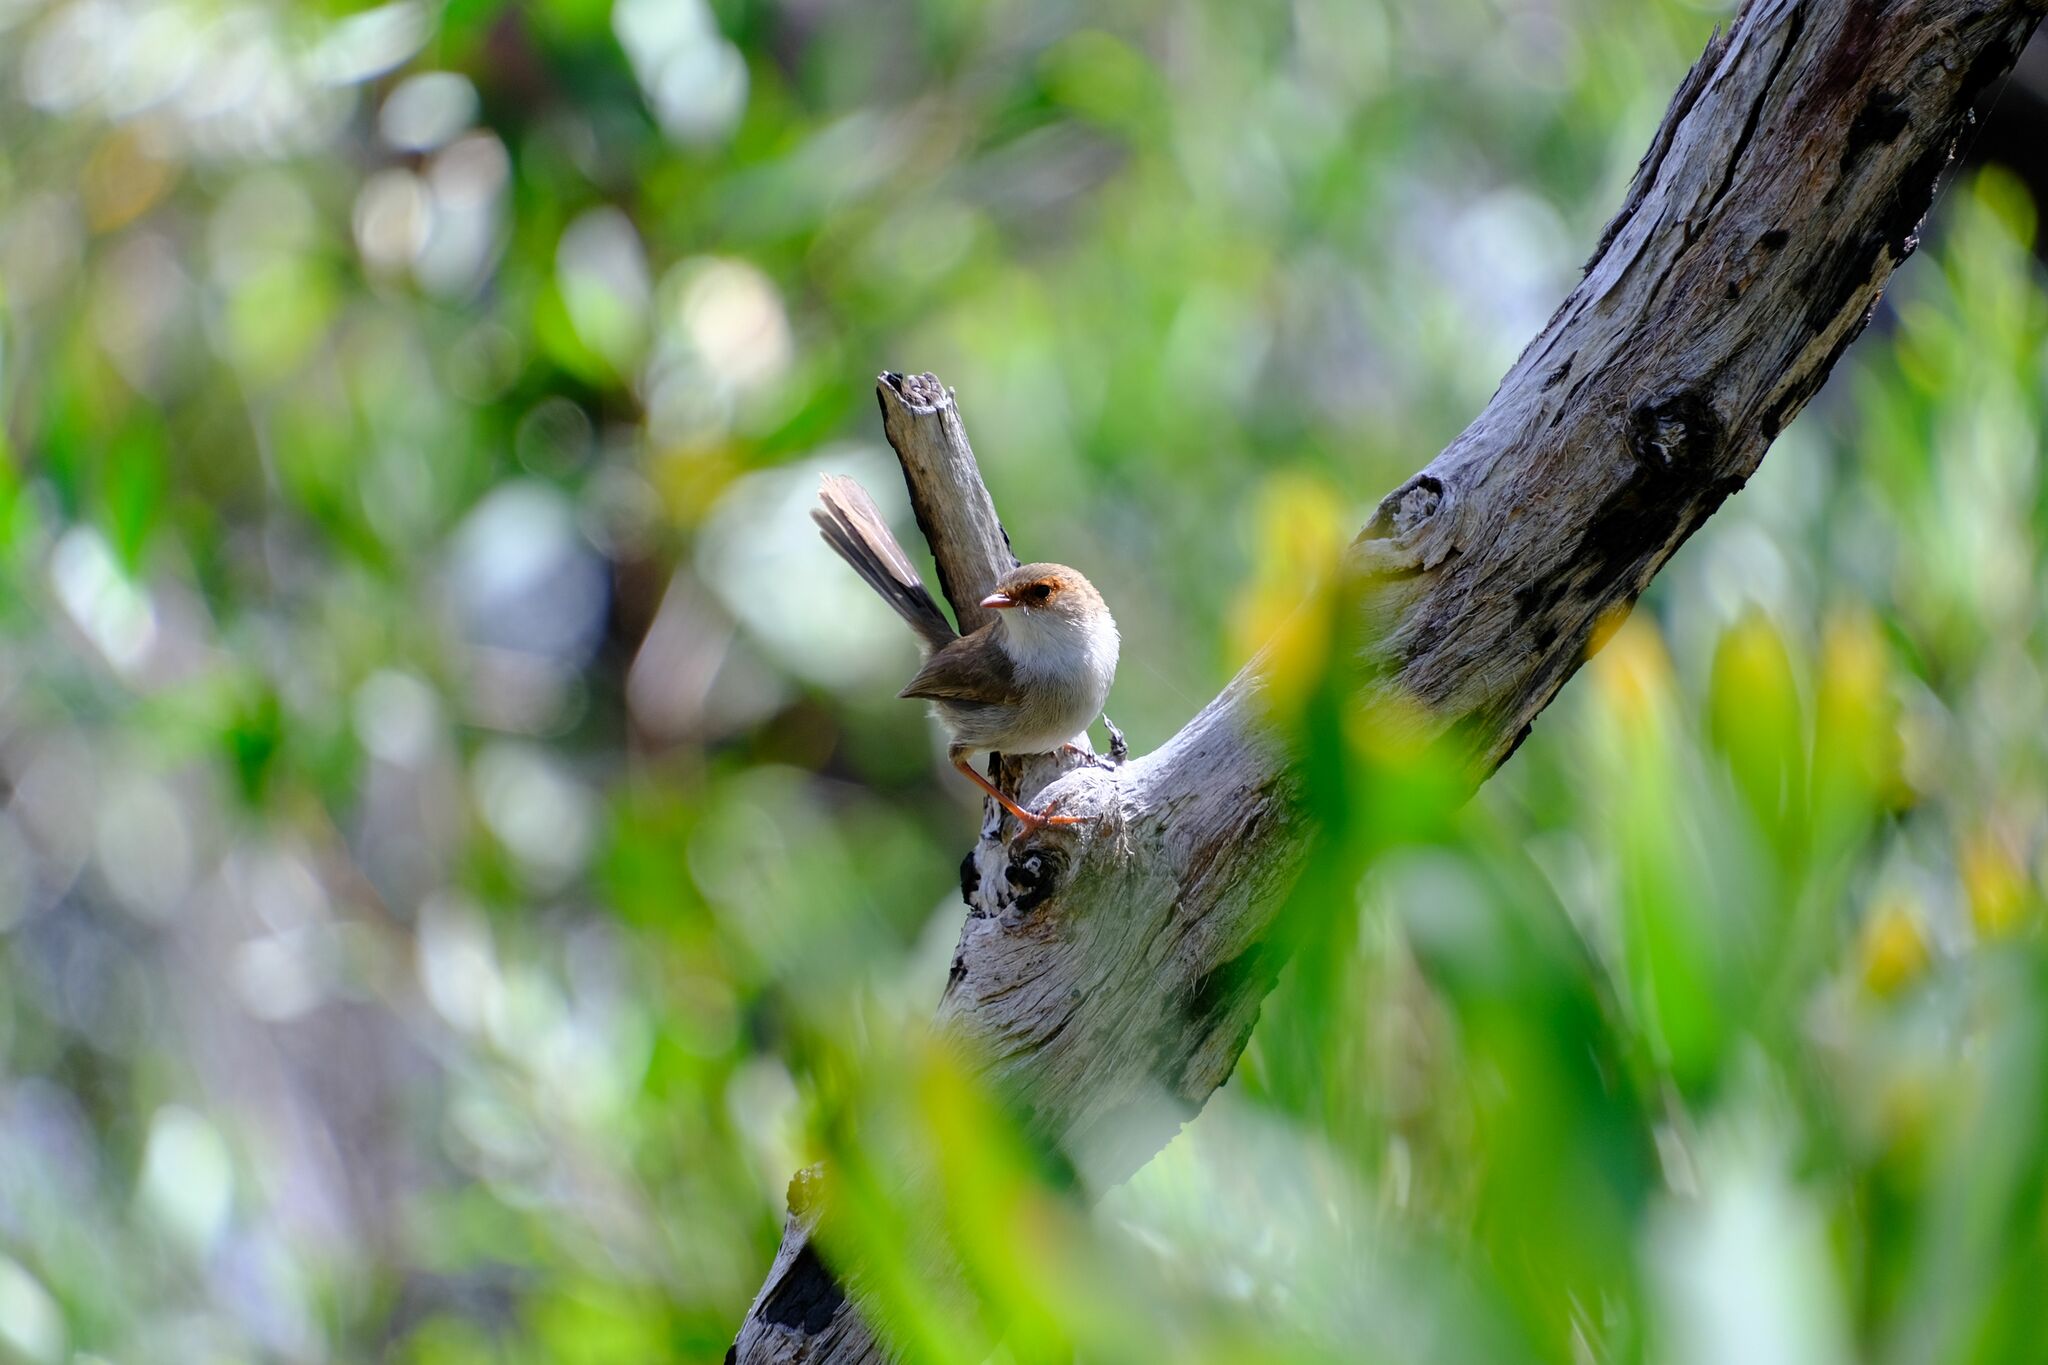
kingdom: Animalia
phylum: Chordata
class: Aves
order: Passeriformes
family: Maluridae
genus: Malurus
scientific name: Malurus cyaneus
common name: Superb fairywren
